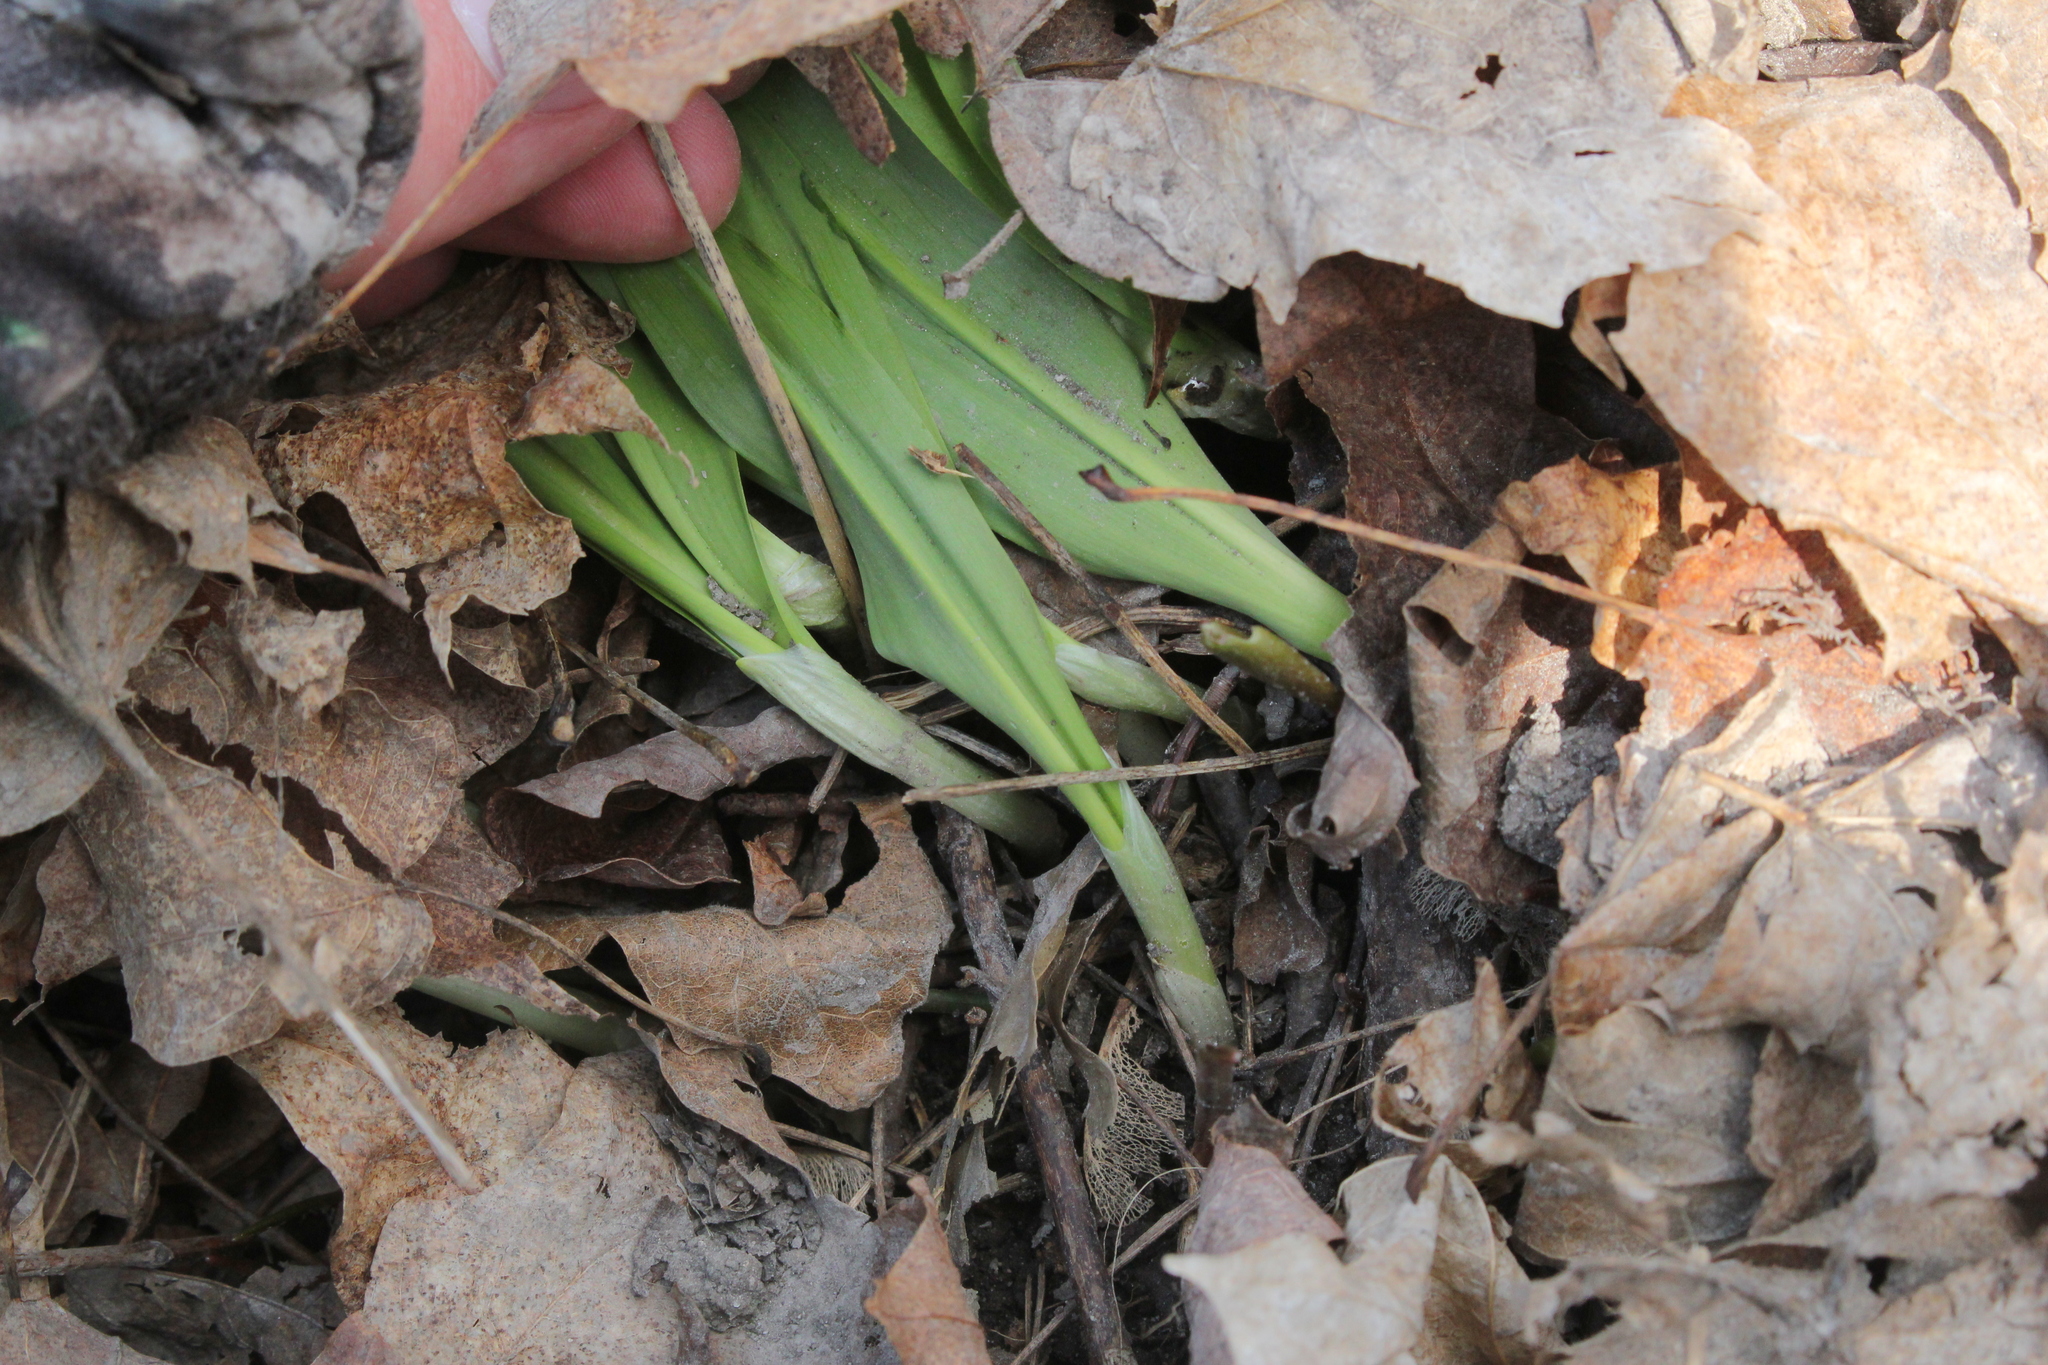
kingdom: Plantae
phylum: Tracheophyta
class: Liliopsida
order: Asparagales
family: Amaryllidaceae
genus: Allium
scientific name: Allium tricoccum
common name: Ramp
